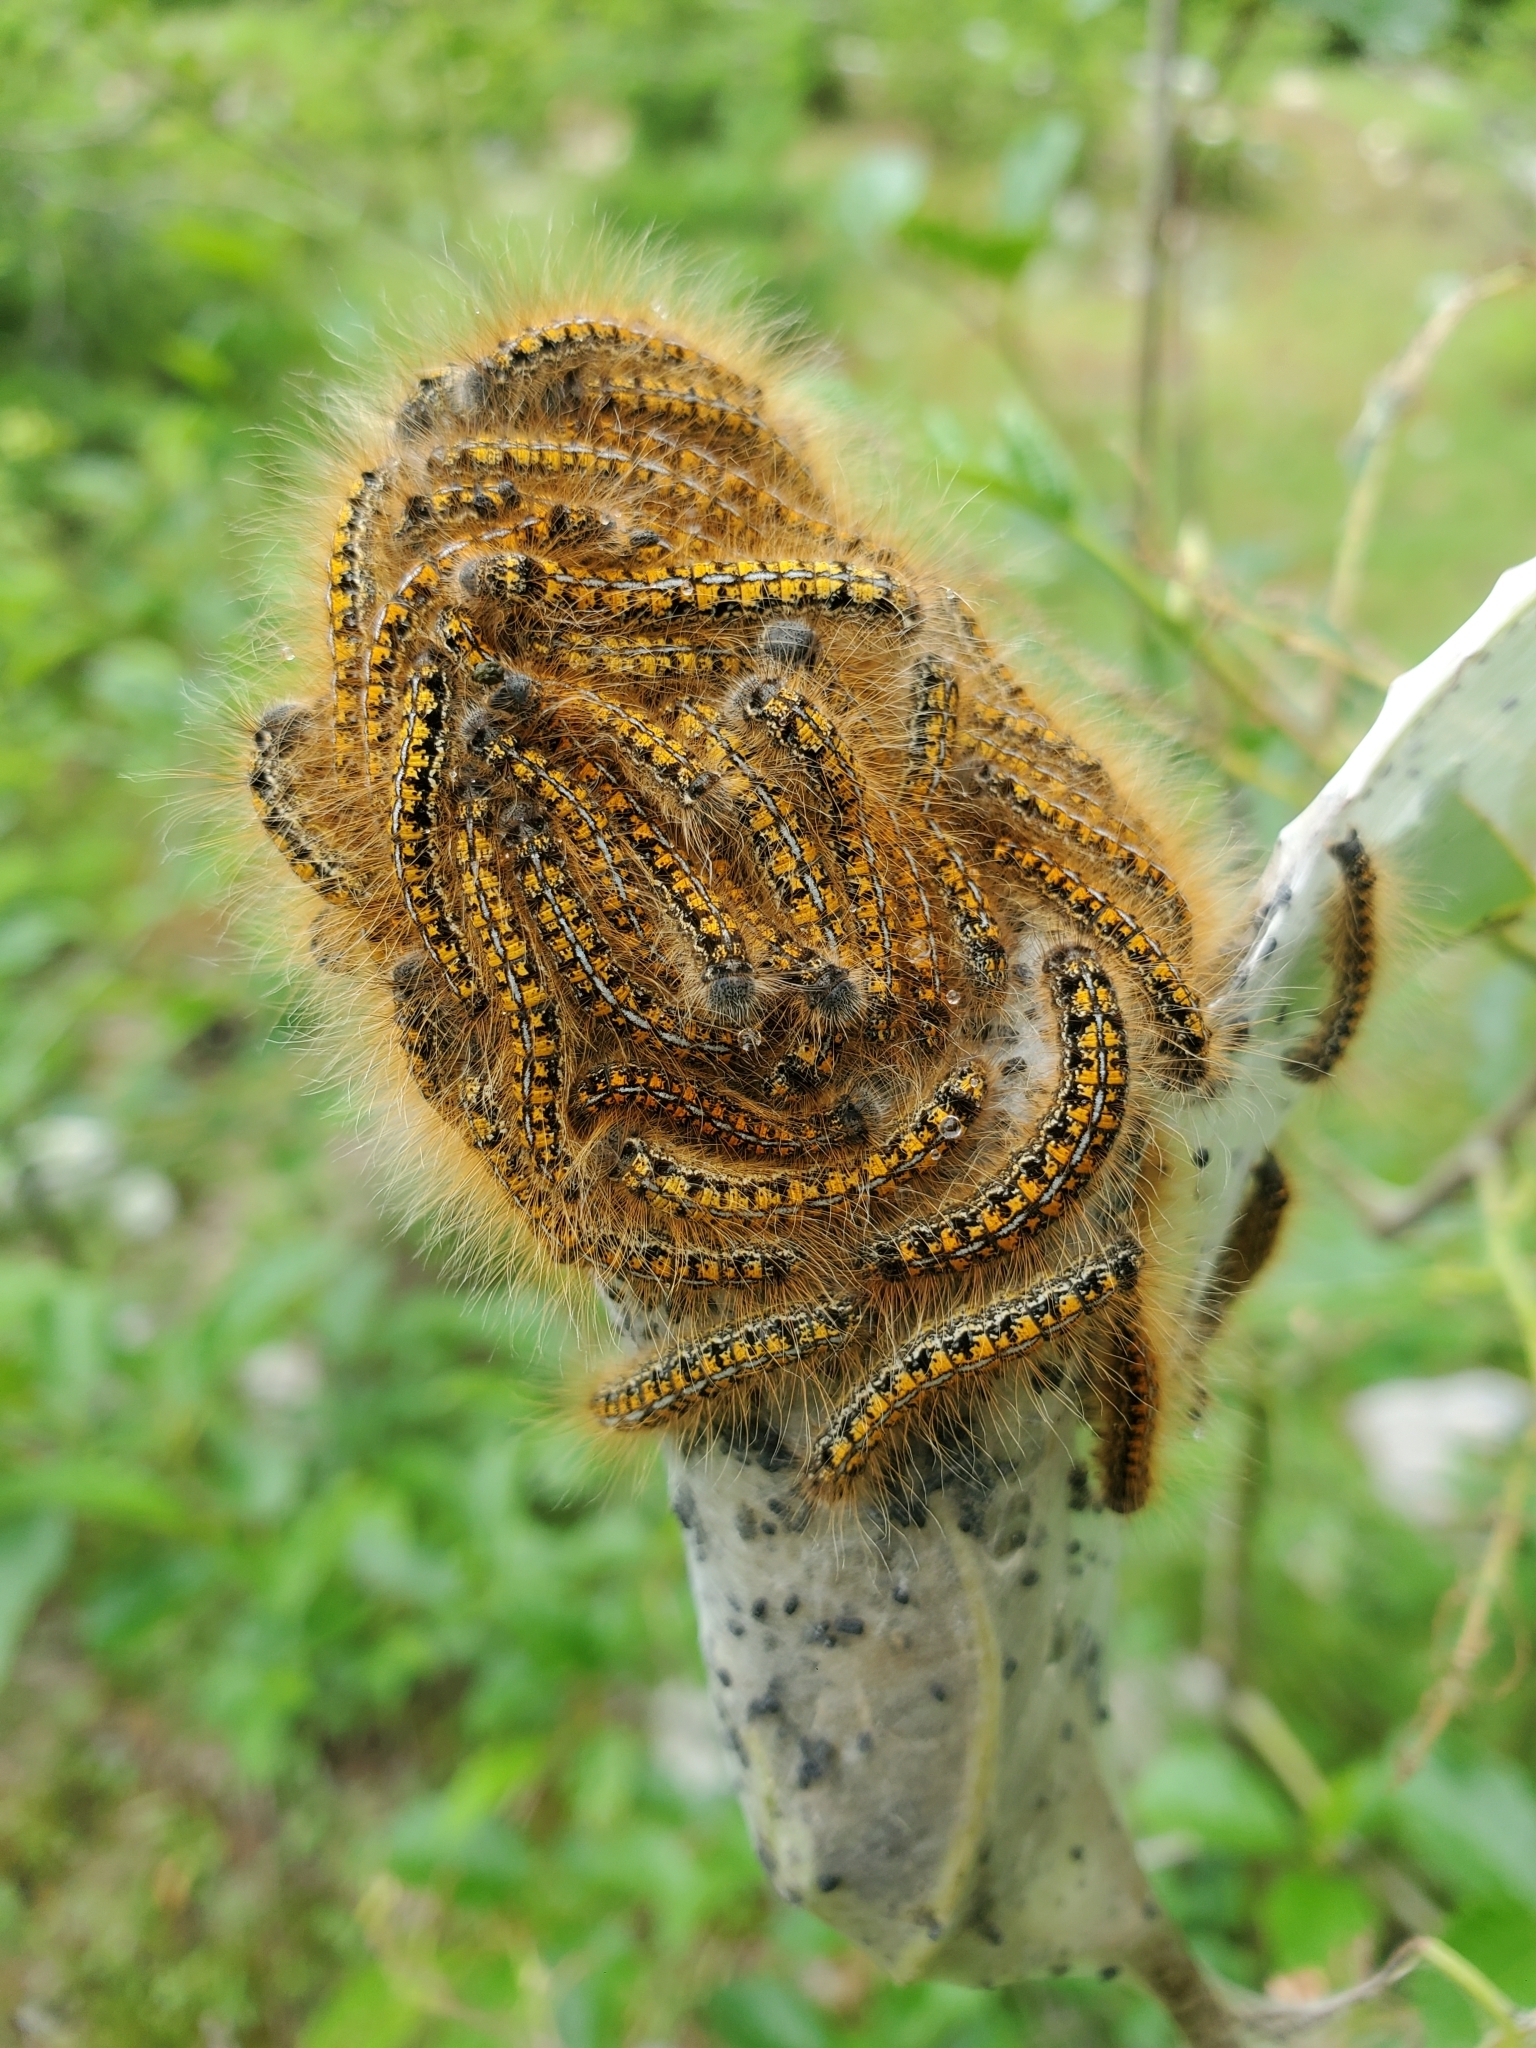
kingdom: Animalia
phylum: Arthropoda
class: Insecta
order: Lepidoptera
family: Lasiocampidae
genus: Malacosoma
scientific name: Malacosoma californica
